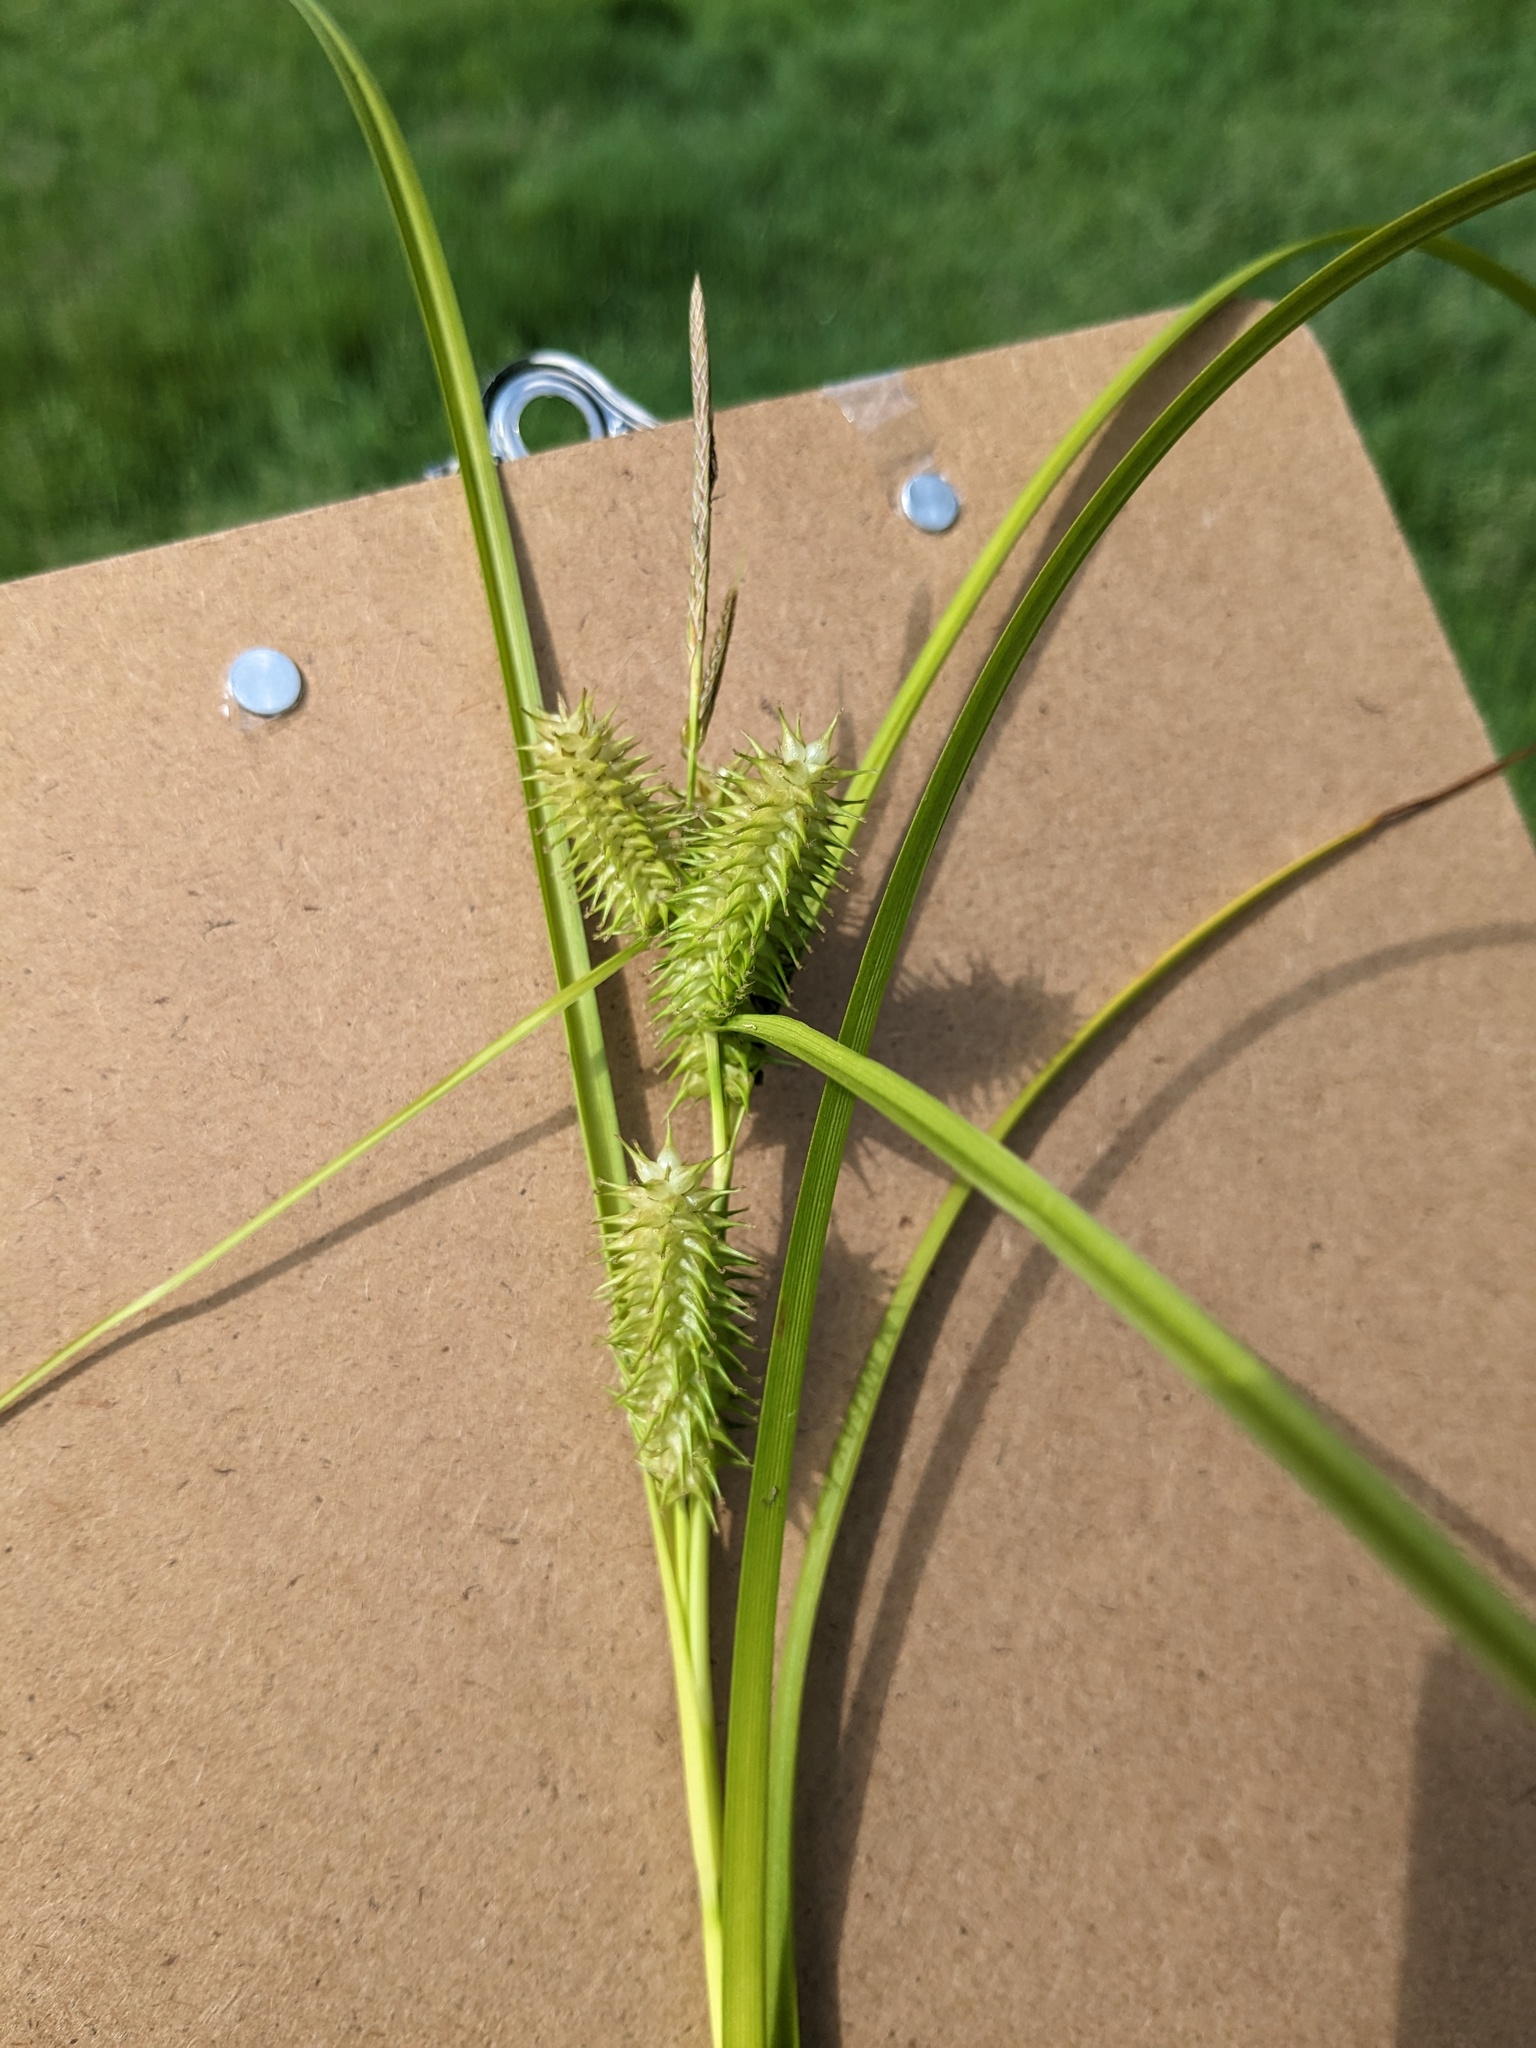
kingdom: Plantae
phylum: Tracheophyta
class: Liliopsida
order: Poales
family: Cyperaceae
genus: Carex
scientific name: Carex retrorsa
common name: Knot-sheath sedge
